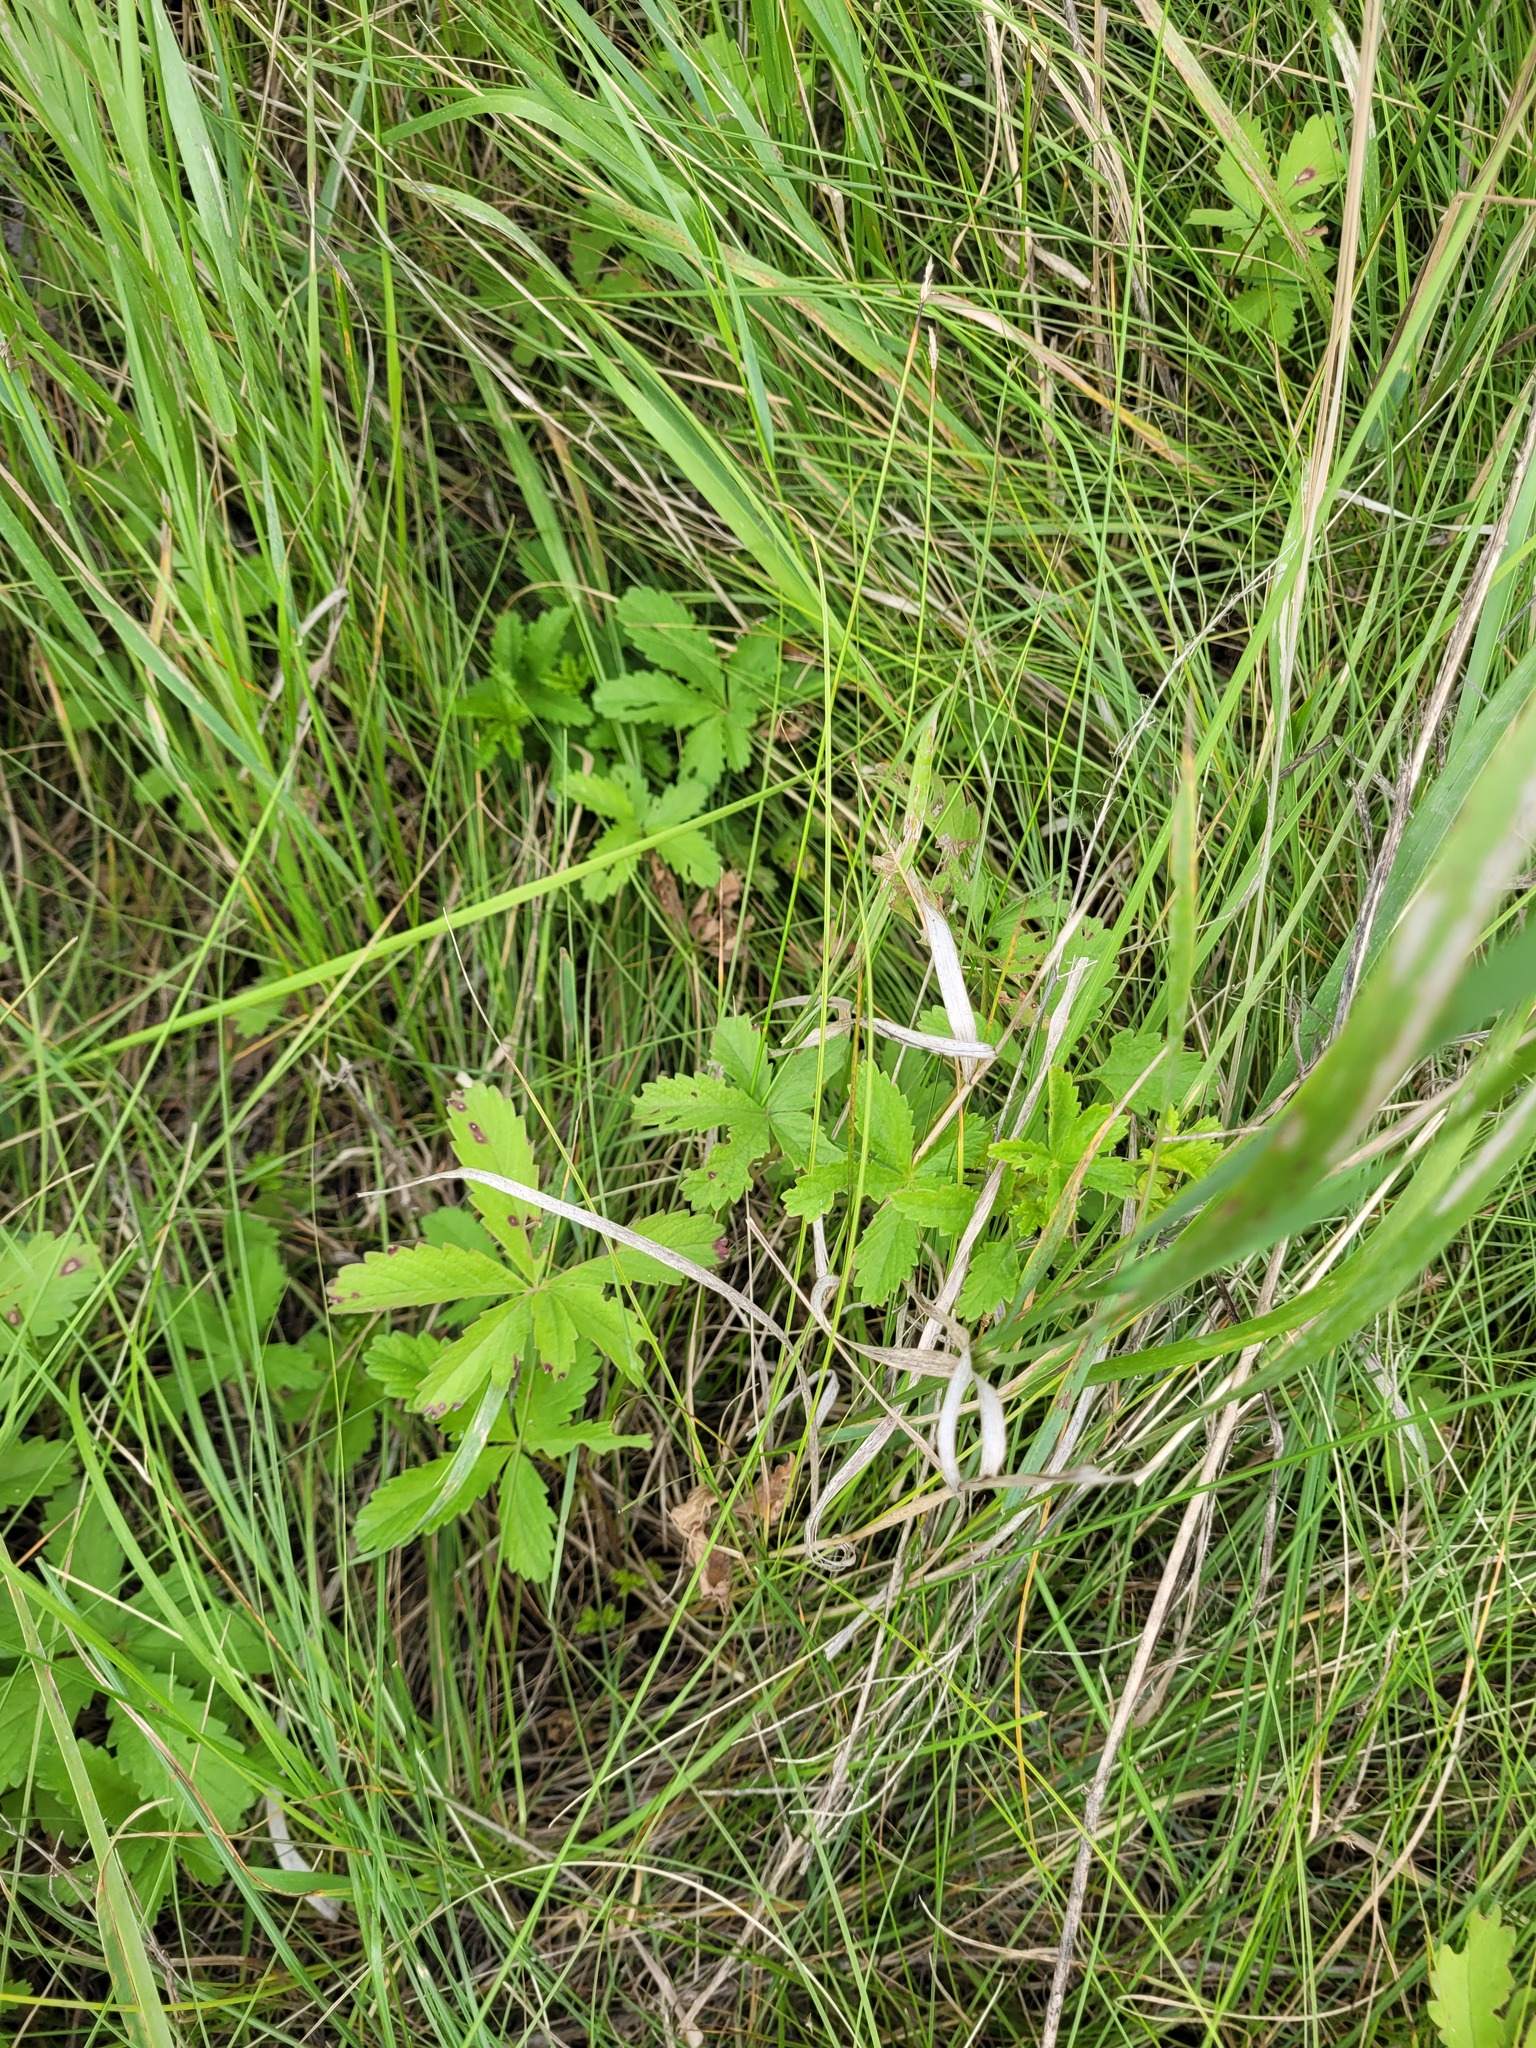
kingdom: Plantae
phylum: Tracheophyta
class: Magnoliopsida
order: Rosales
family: Rosaceae
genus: Potentilla
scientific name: Potentilla reptans
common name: Creeping cinquefoil
